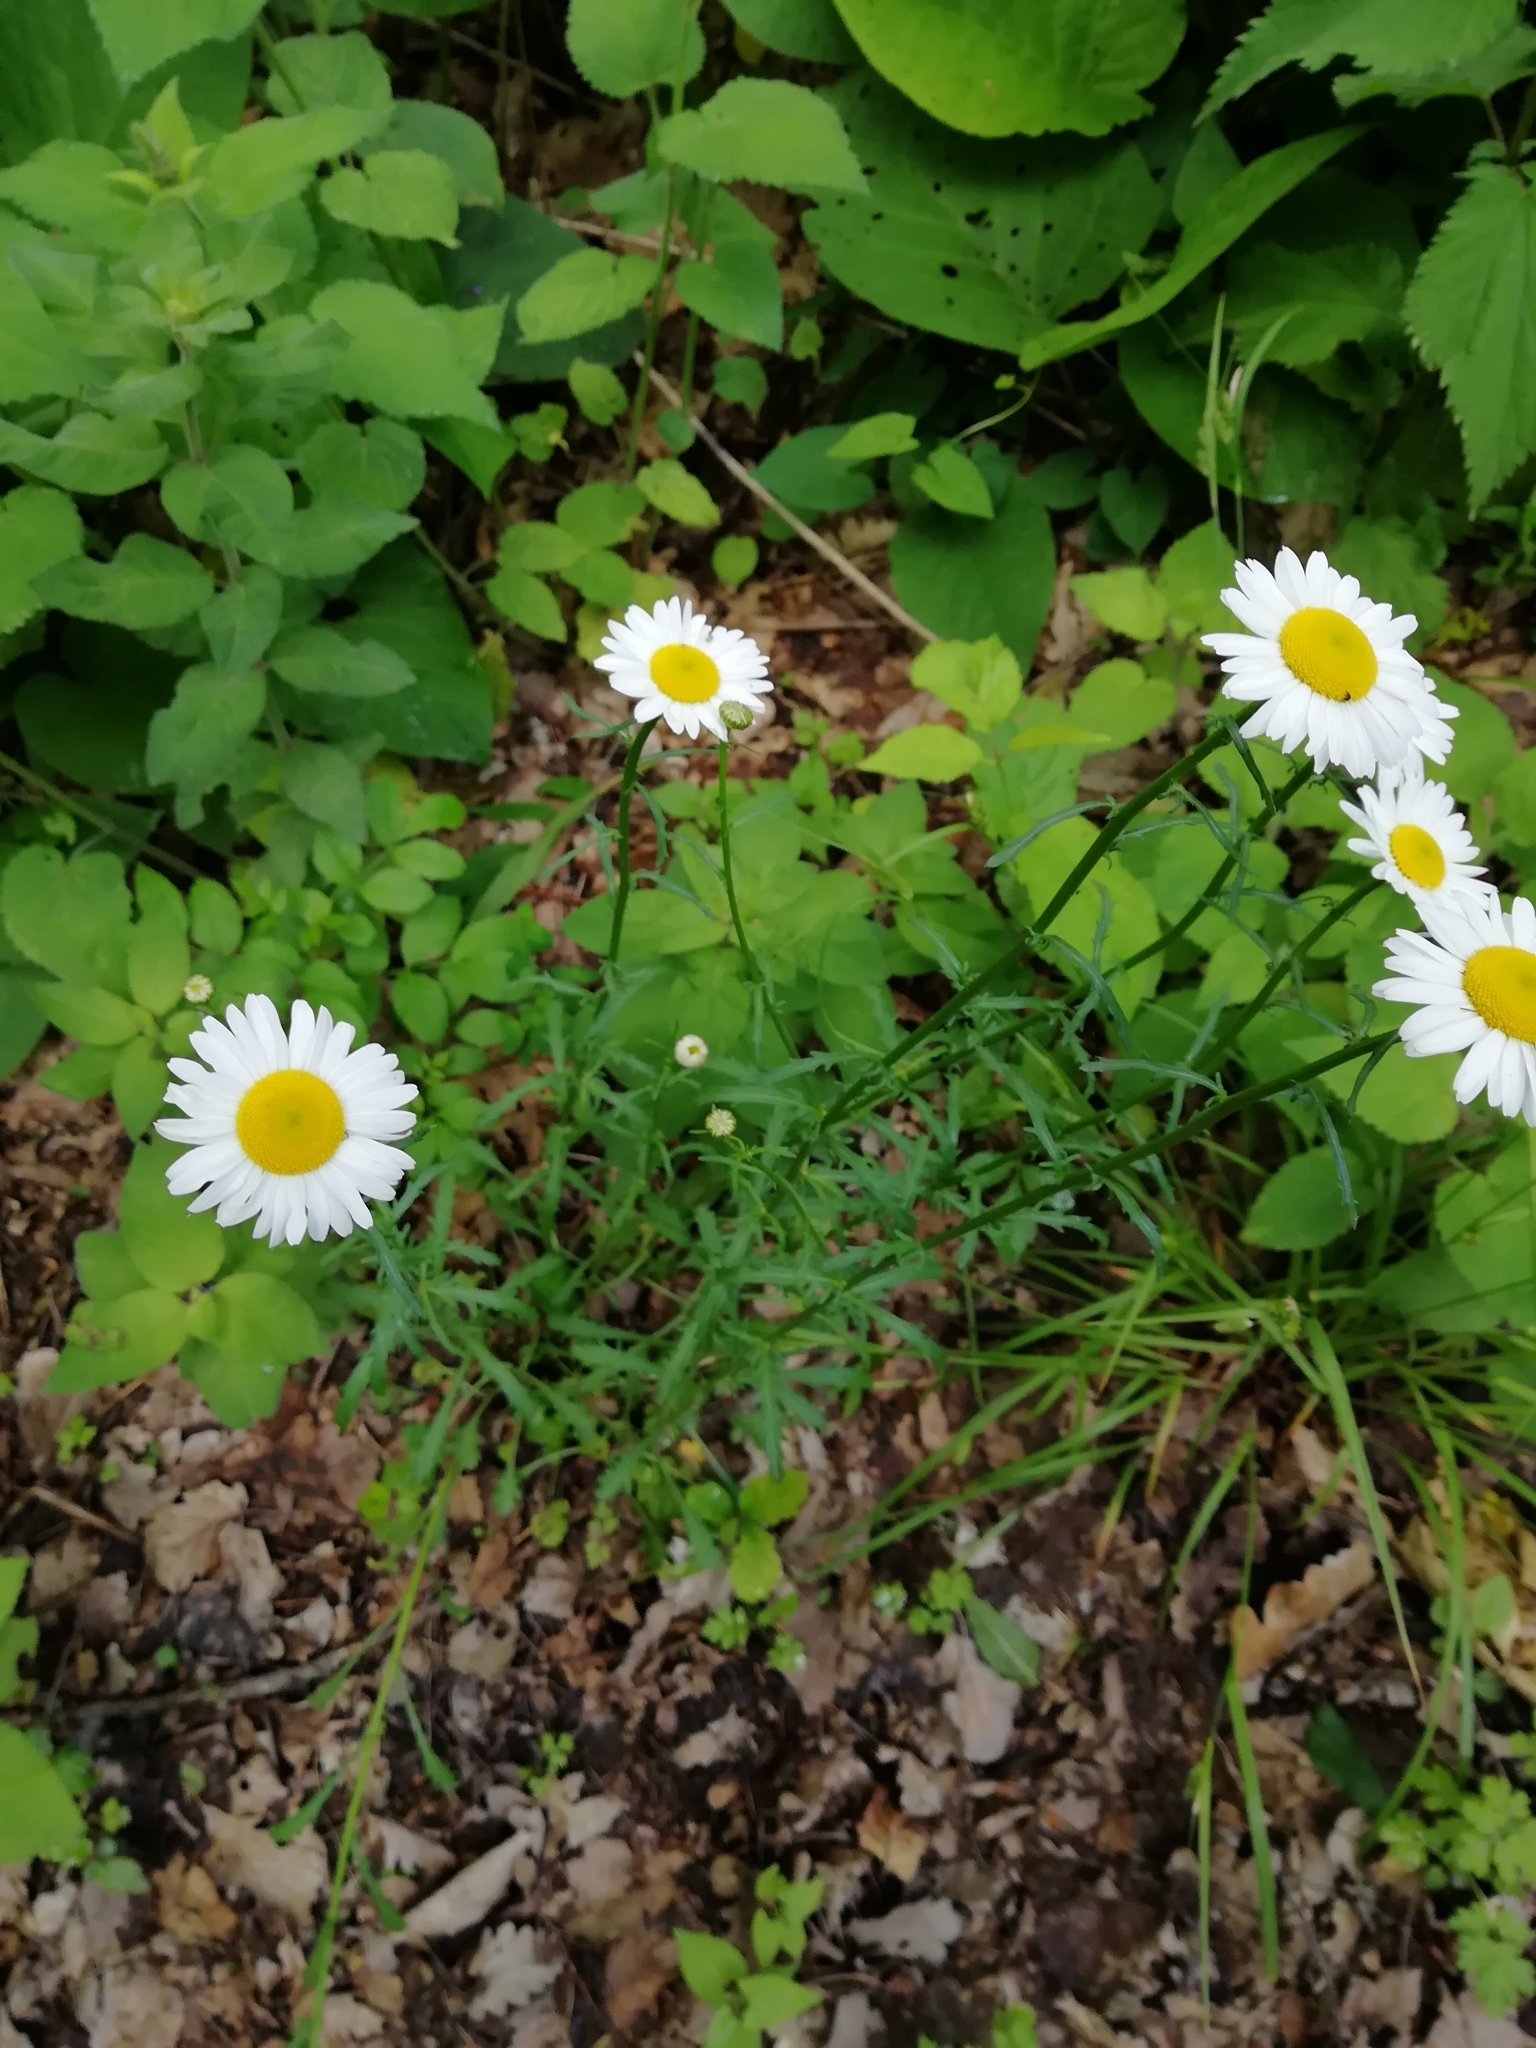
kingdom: Plantae
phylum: Tracheophyta
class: Magnoliopsida
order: Asterales
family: Asteraceae
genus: Leucanthemum
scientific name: Leucanthemum vulgare
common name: Oxeye daisy
